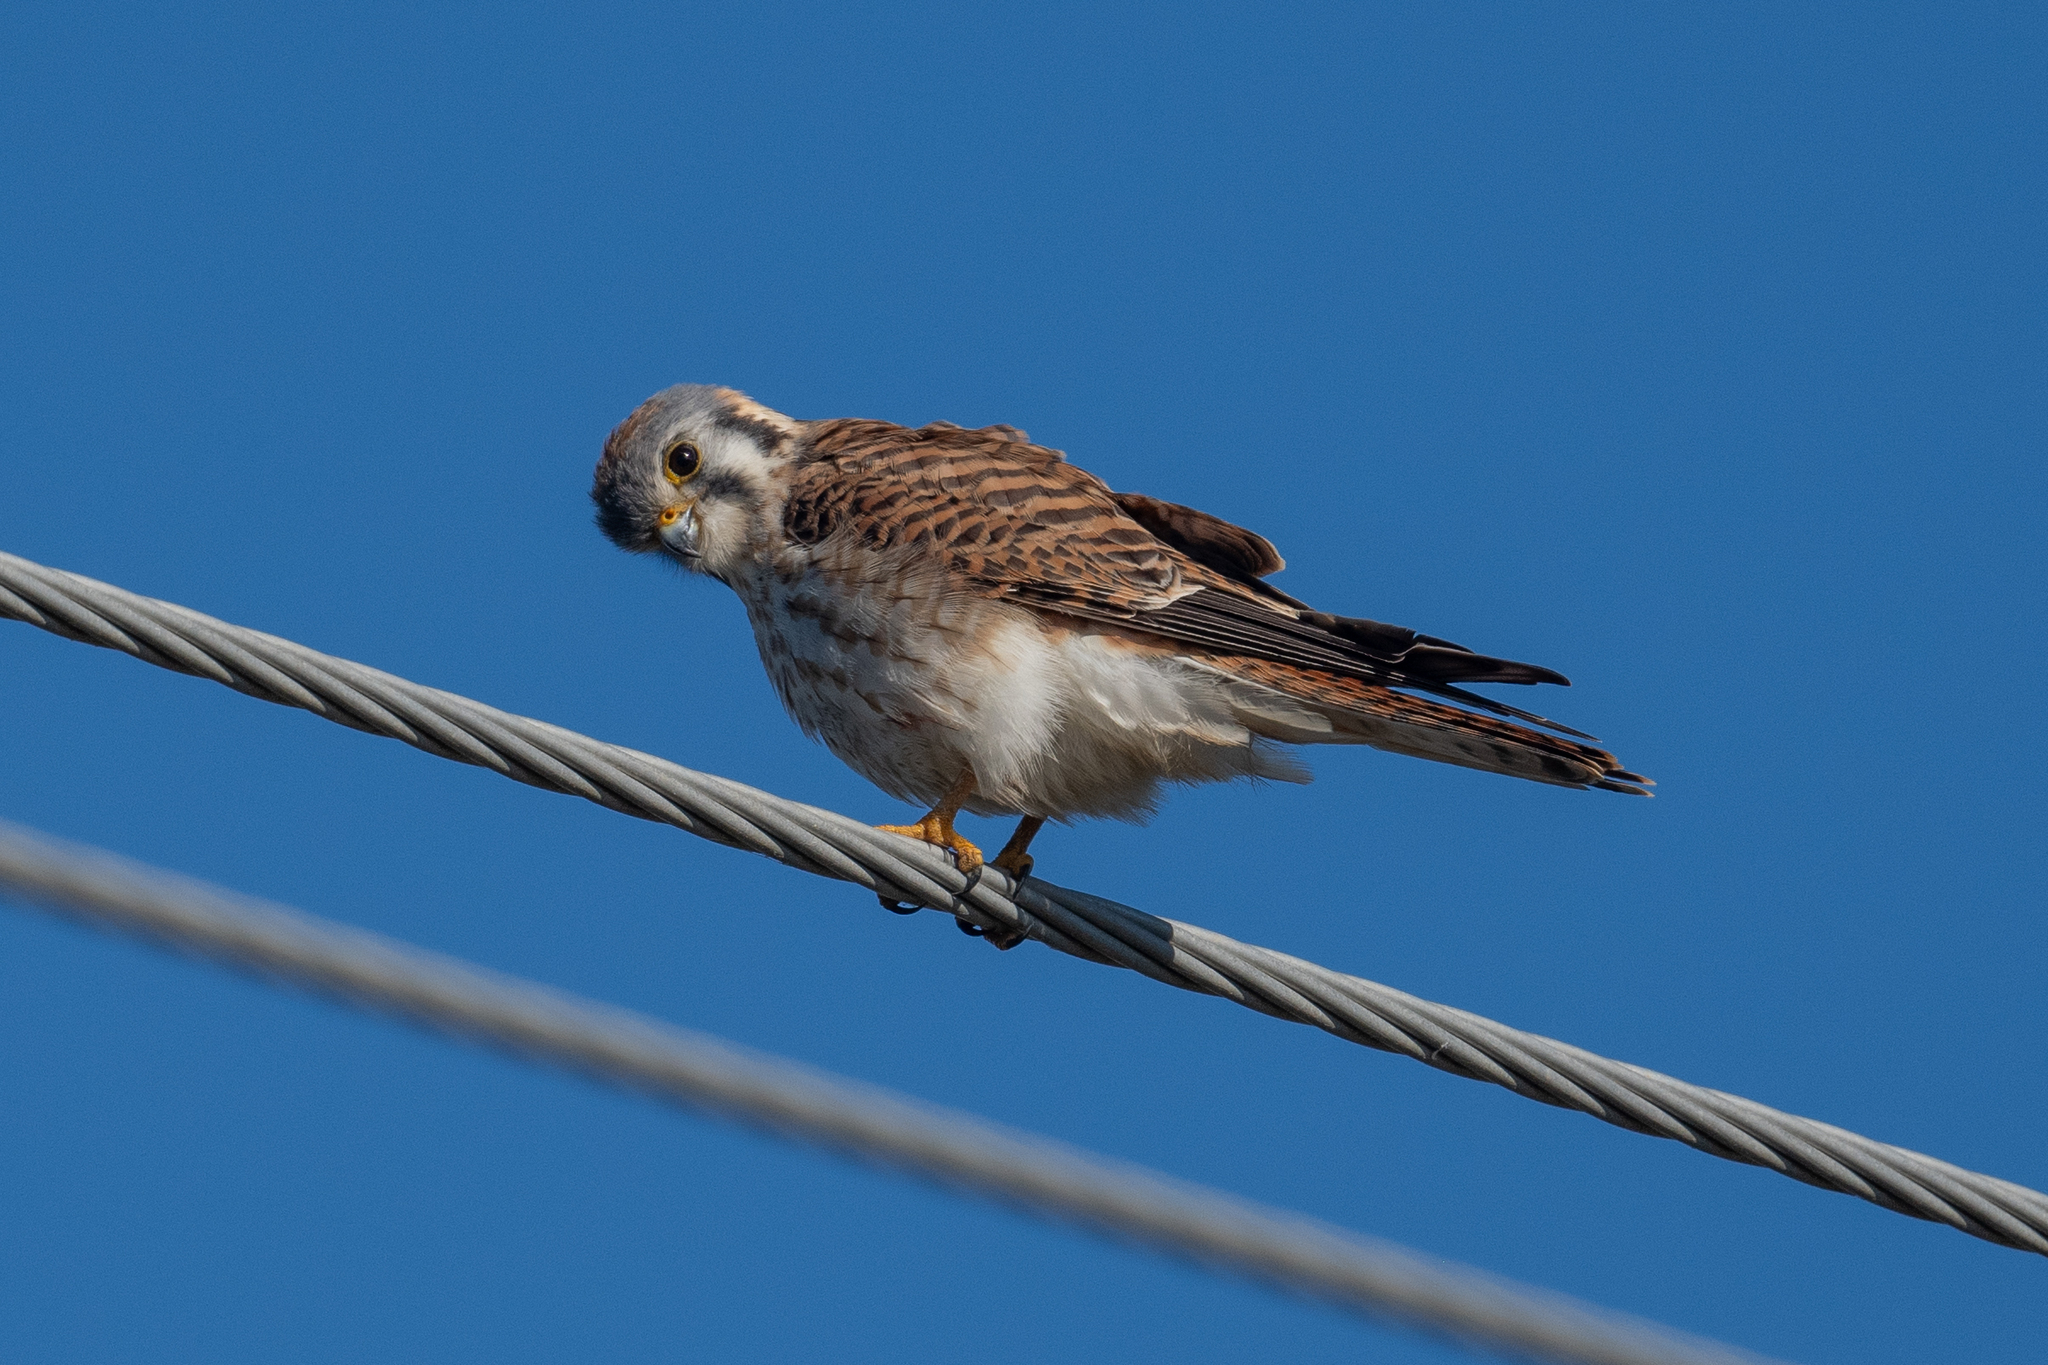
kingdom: Animalia
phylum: Chordata
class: Aves
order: Falconiformes
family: Falconidae
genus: Falco
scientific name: Falco sparverius
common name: American kestrel
